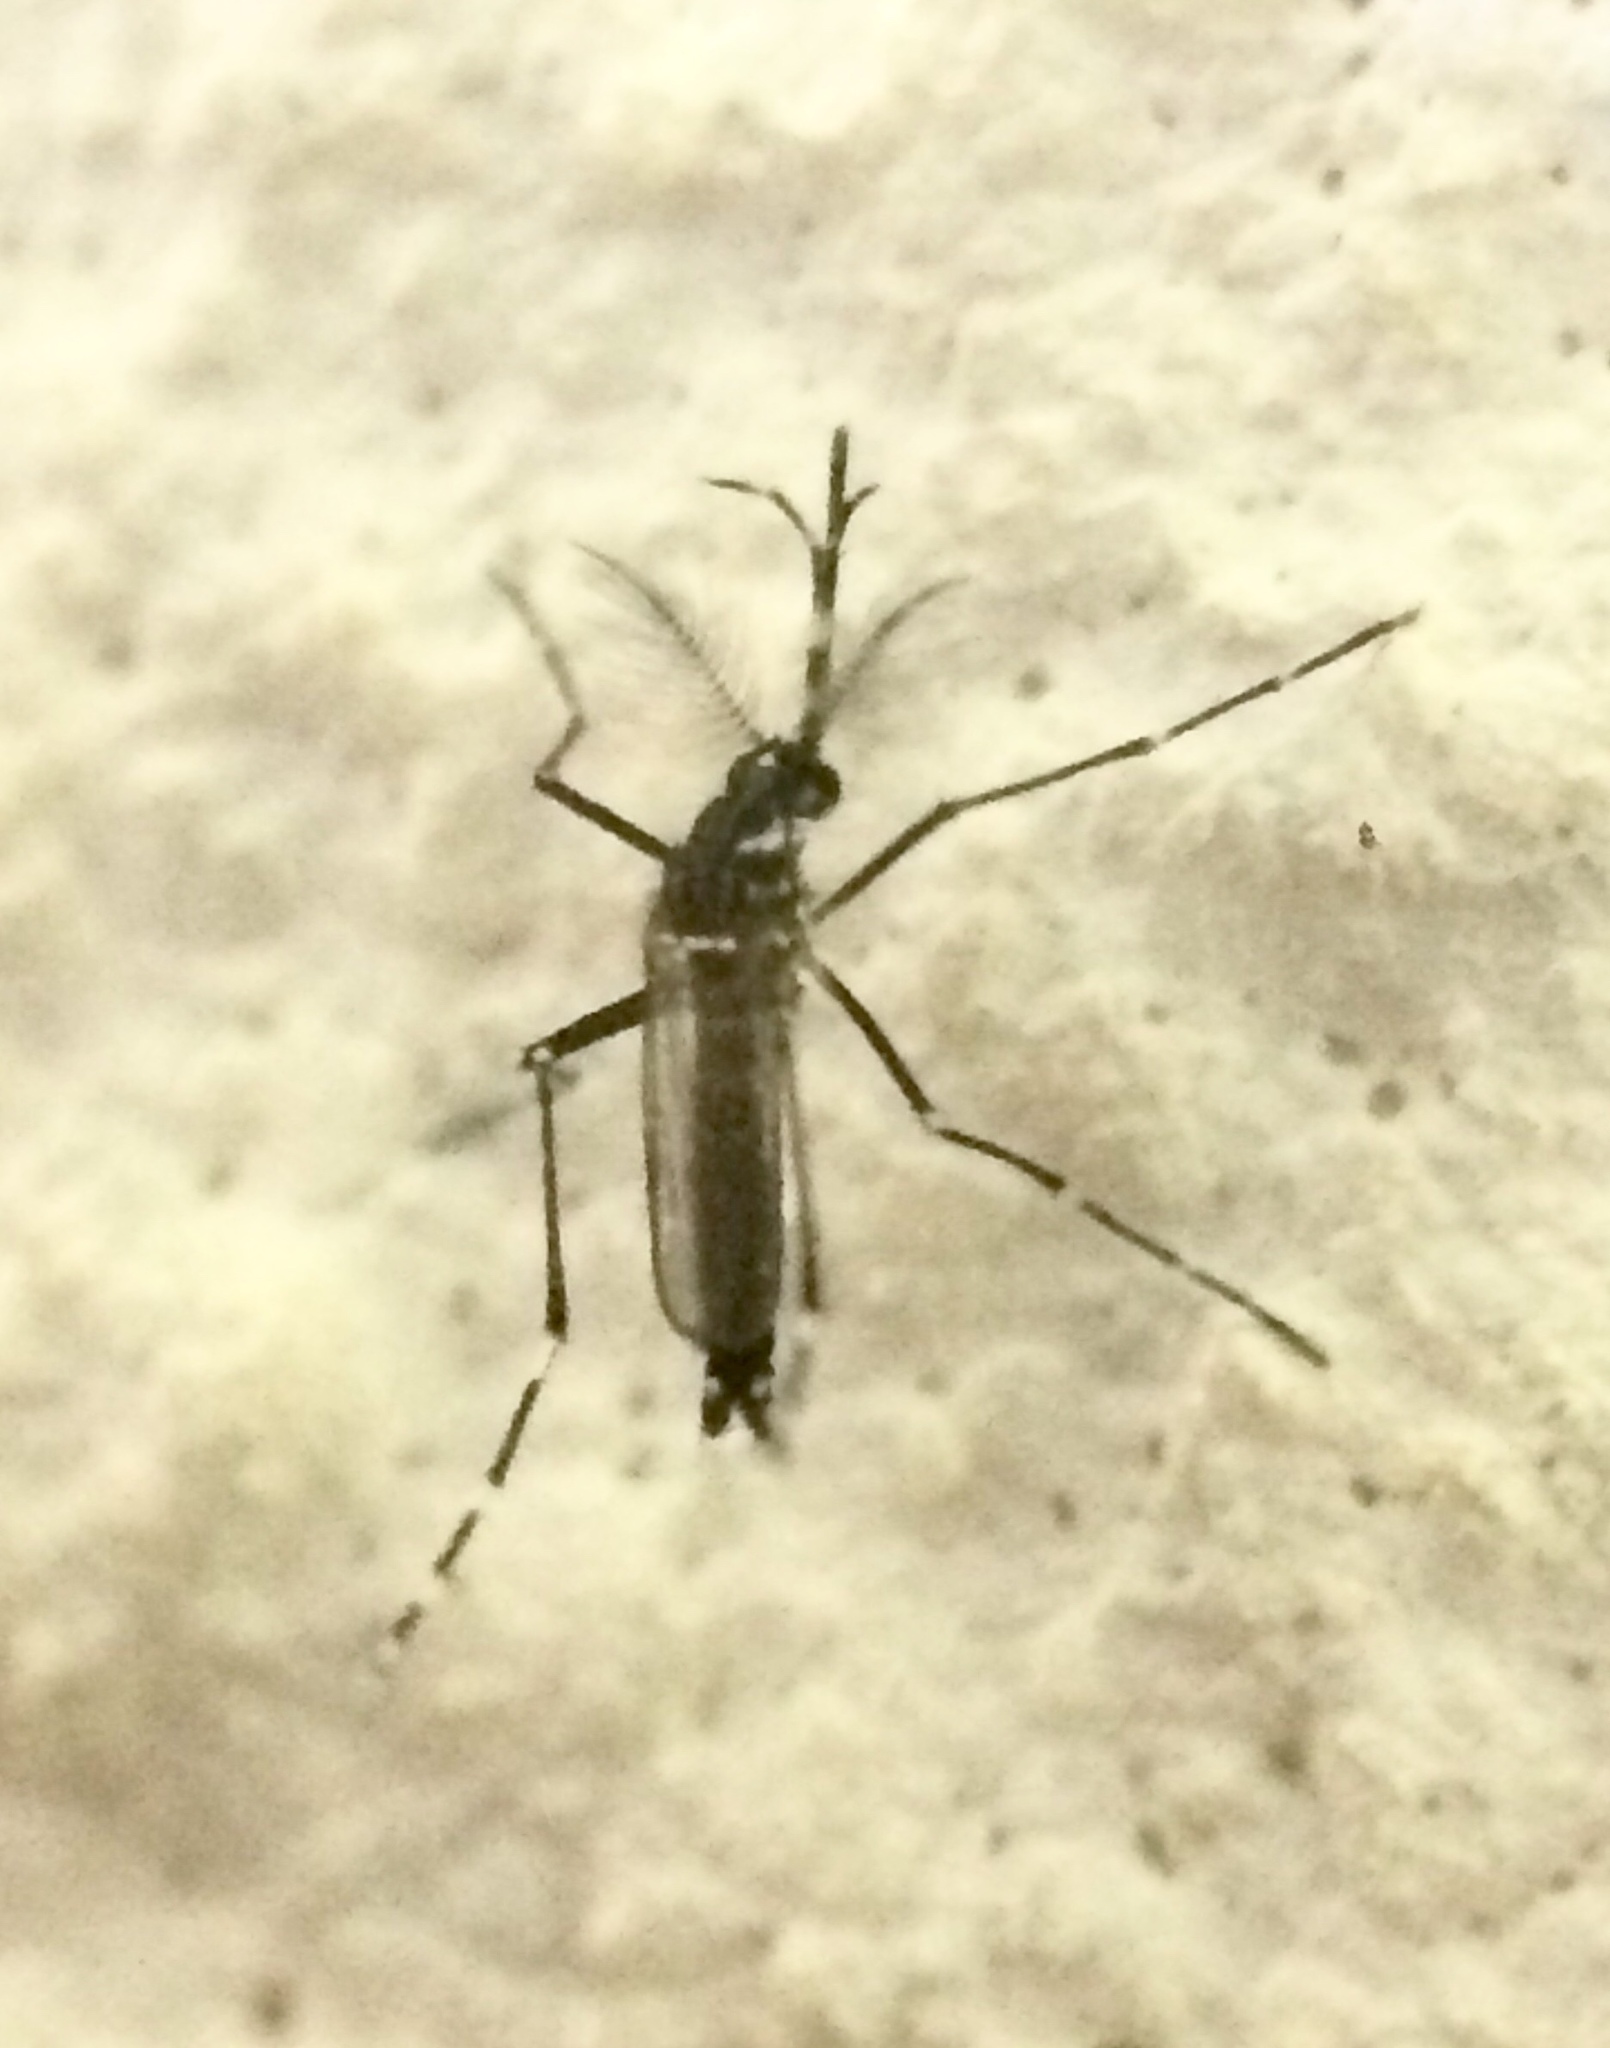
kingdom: Animalia
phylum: Arthropoda
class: Insecta
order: Diptera
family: Culicidae
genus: Aedes
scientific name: Aedes aegypti
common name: Yellow fever mosquito
